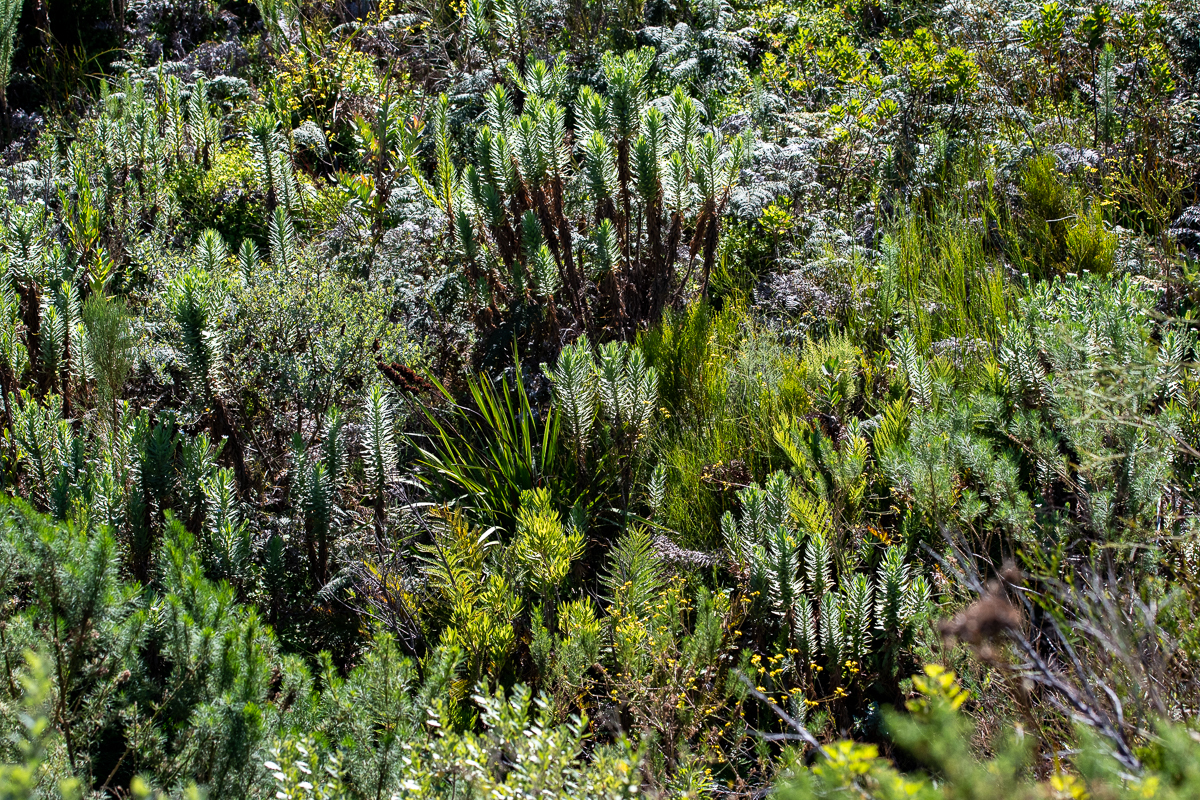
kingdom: Plantae
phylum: Tracheophyta
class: Magnoliopsida
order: Asterales
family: Asteraceae
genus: Osmitopsis
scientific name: Osmitopsis asteriscoides
